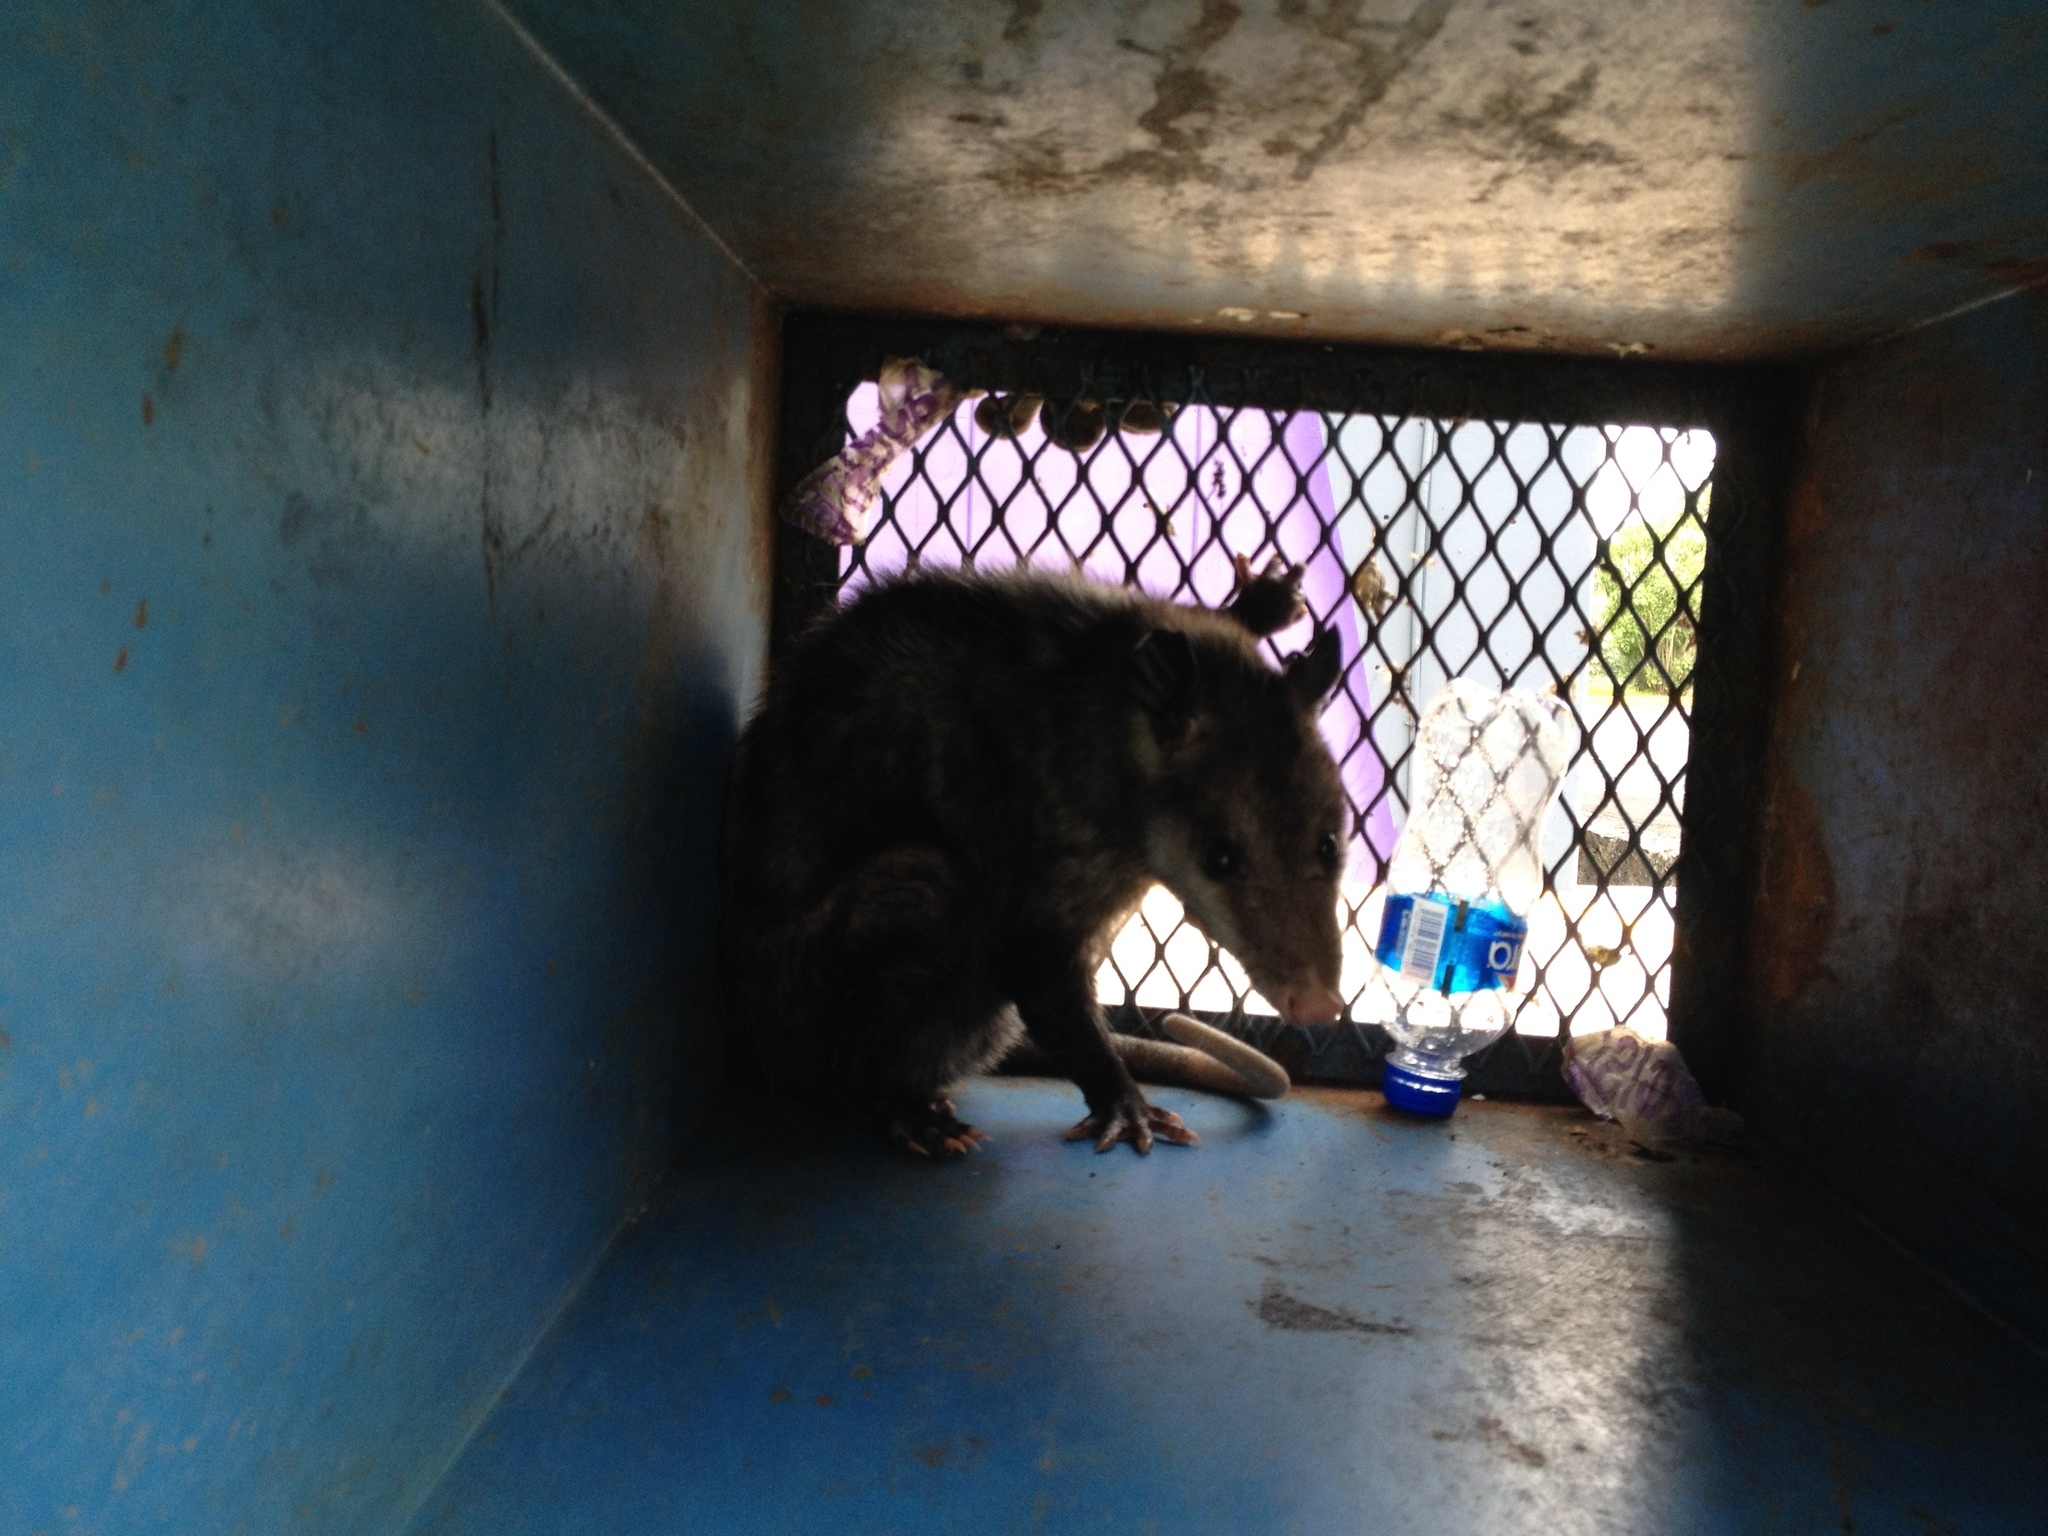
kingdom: Animalia
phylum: Chordata
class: Mammalia
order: Didelphimorphia
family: Didelphidae
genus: Didelphis
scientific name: Didelphis virginiana
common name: Virginia opossum
